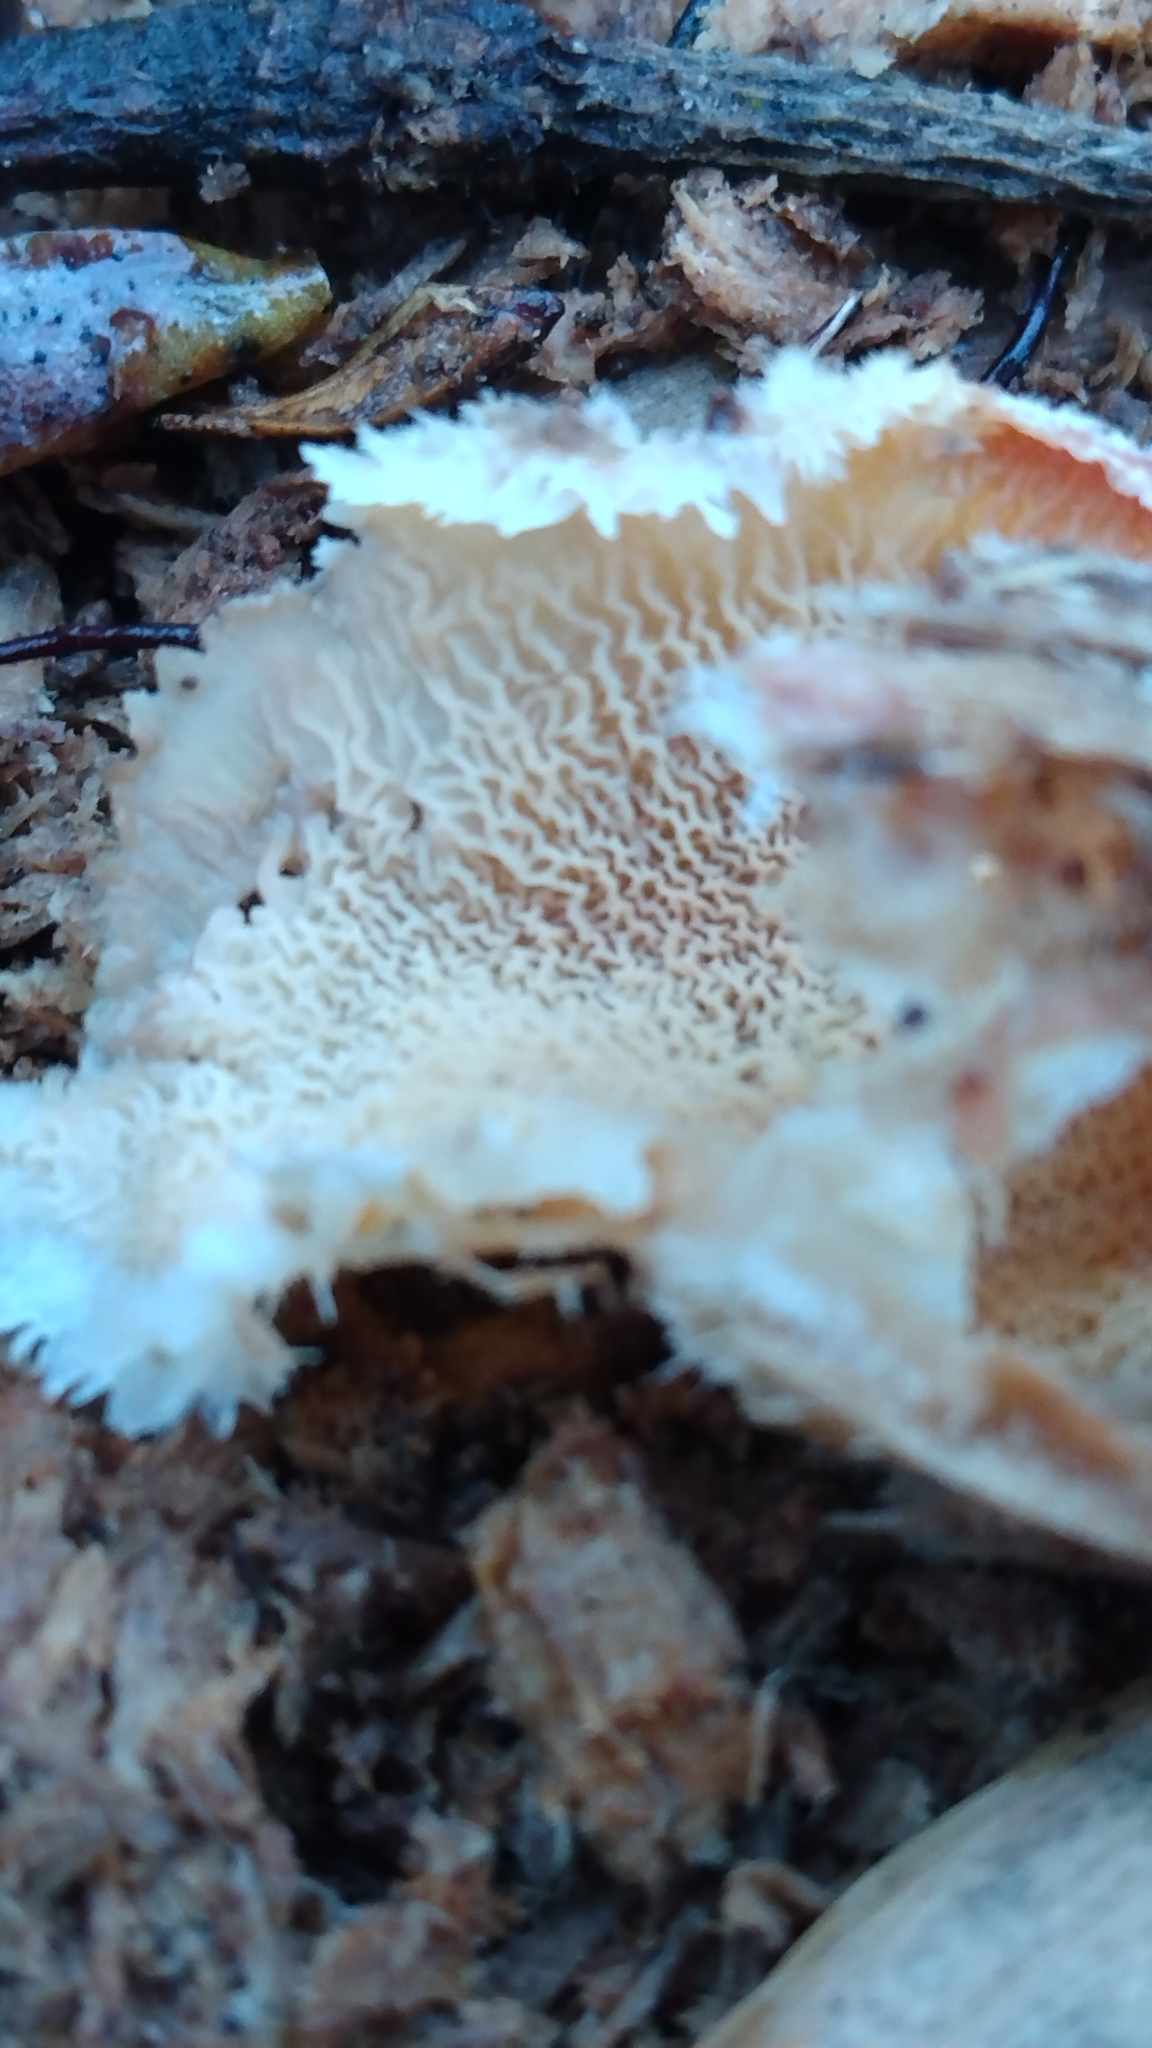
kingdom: Fungi
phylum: Basidiomycota
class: Agaricomycetes
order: Polyporales
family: Meruliaceae
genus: Phlebia
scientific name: Phlebia tremellosa
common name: Jelly rot
